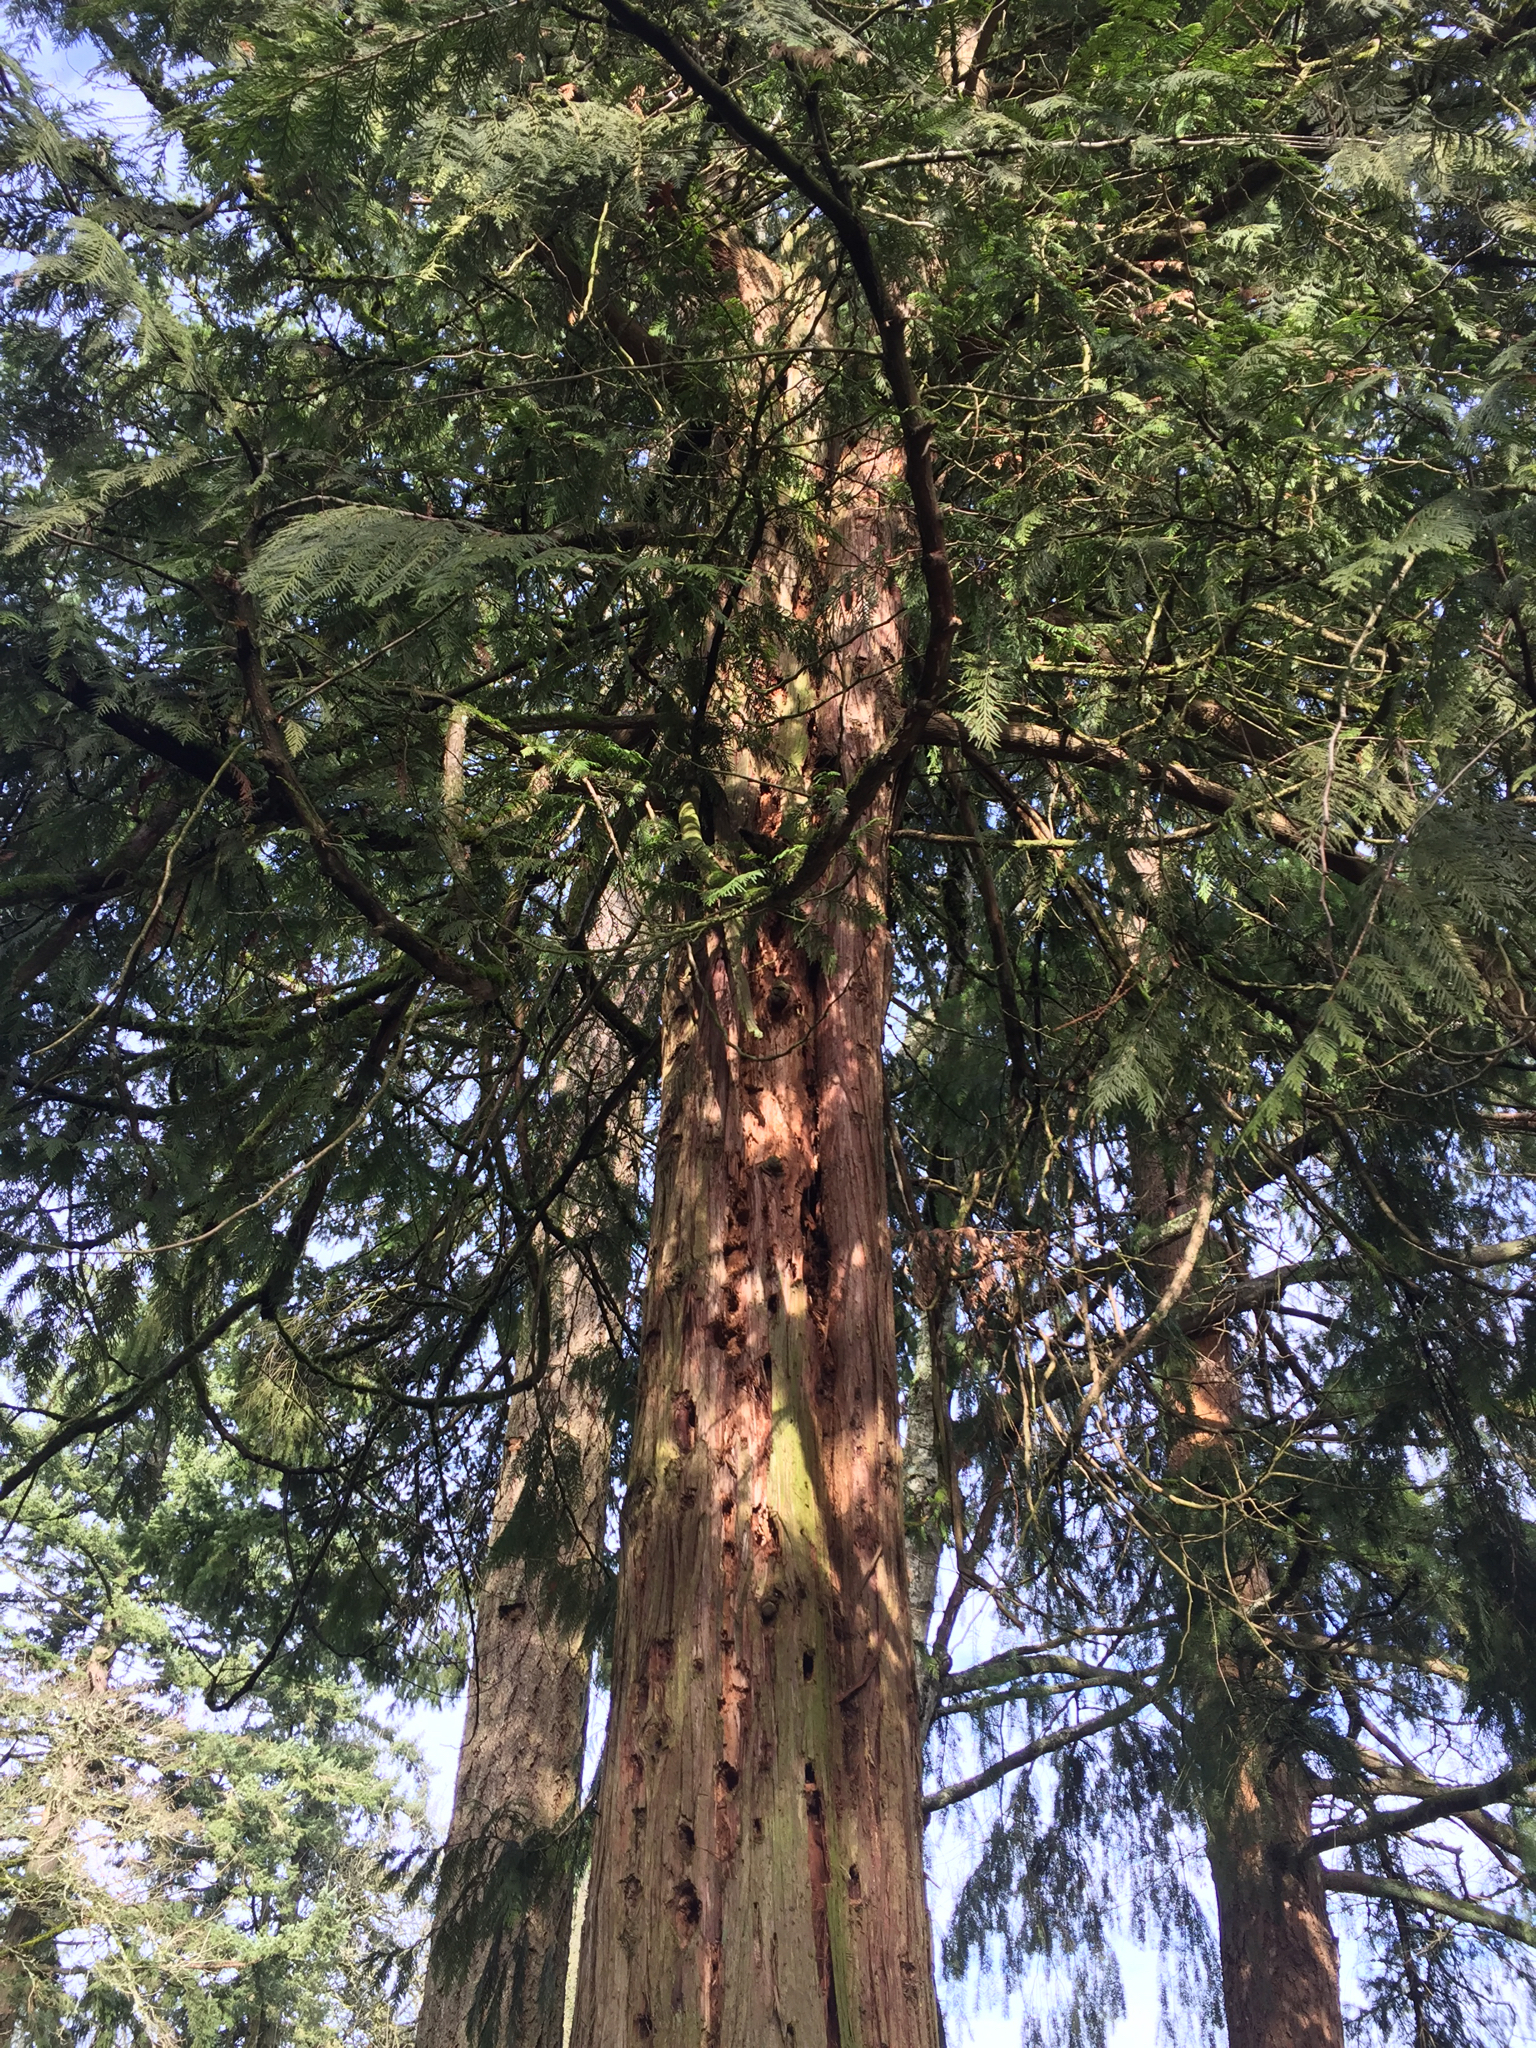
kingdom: Plantae
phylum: Tracheophyta
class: Pinopsida
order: Pinales
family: Cupressaceae
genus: Thuja
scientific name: Thuja plicata
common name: Western red-cedar
